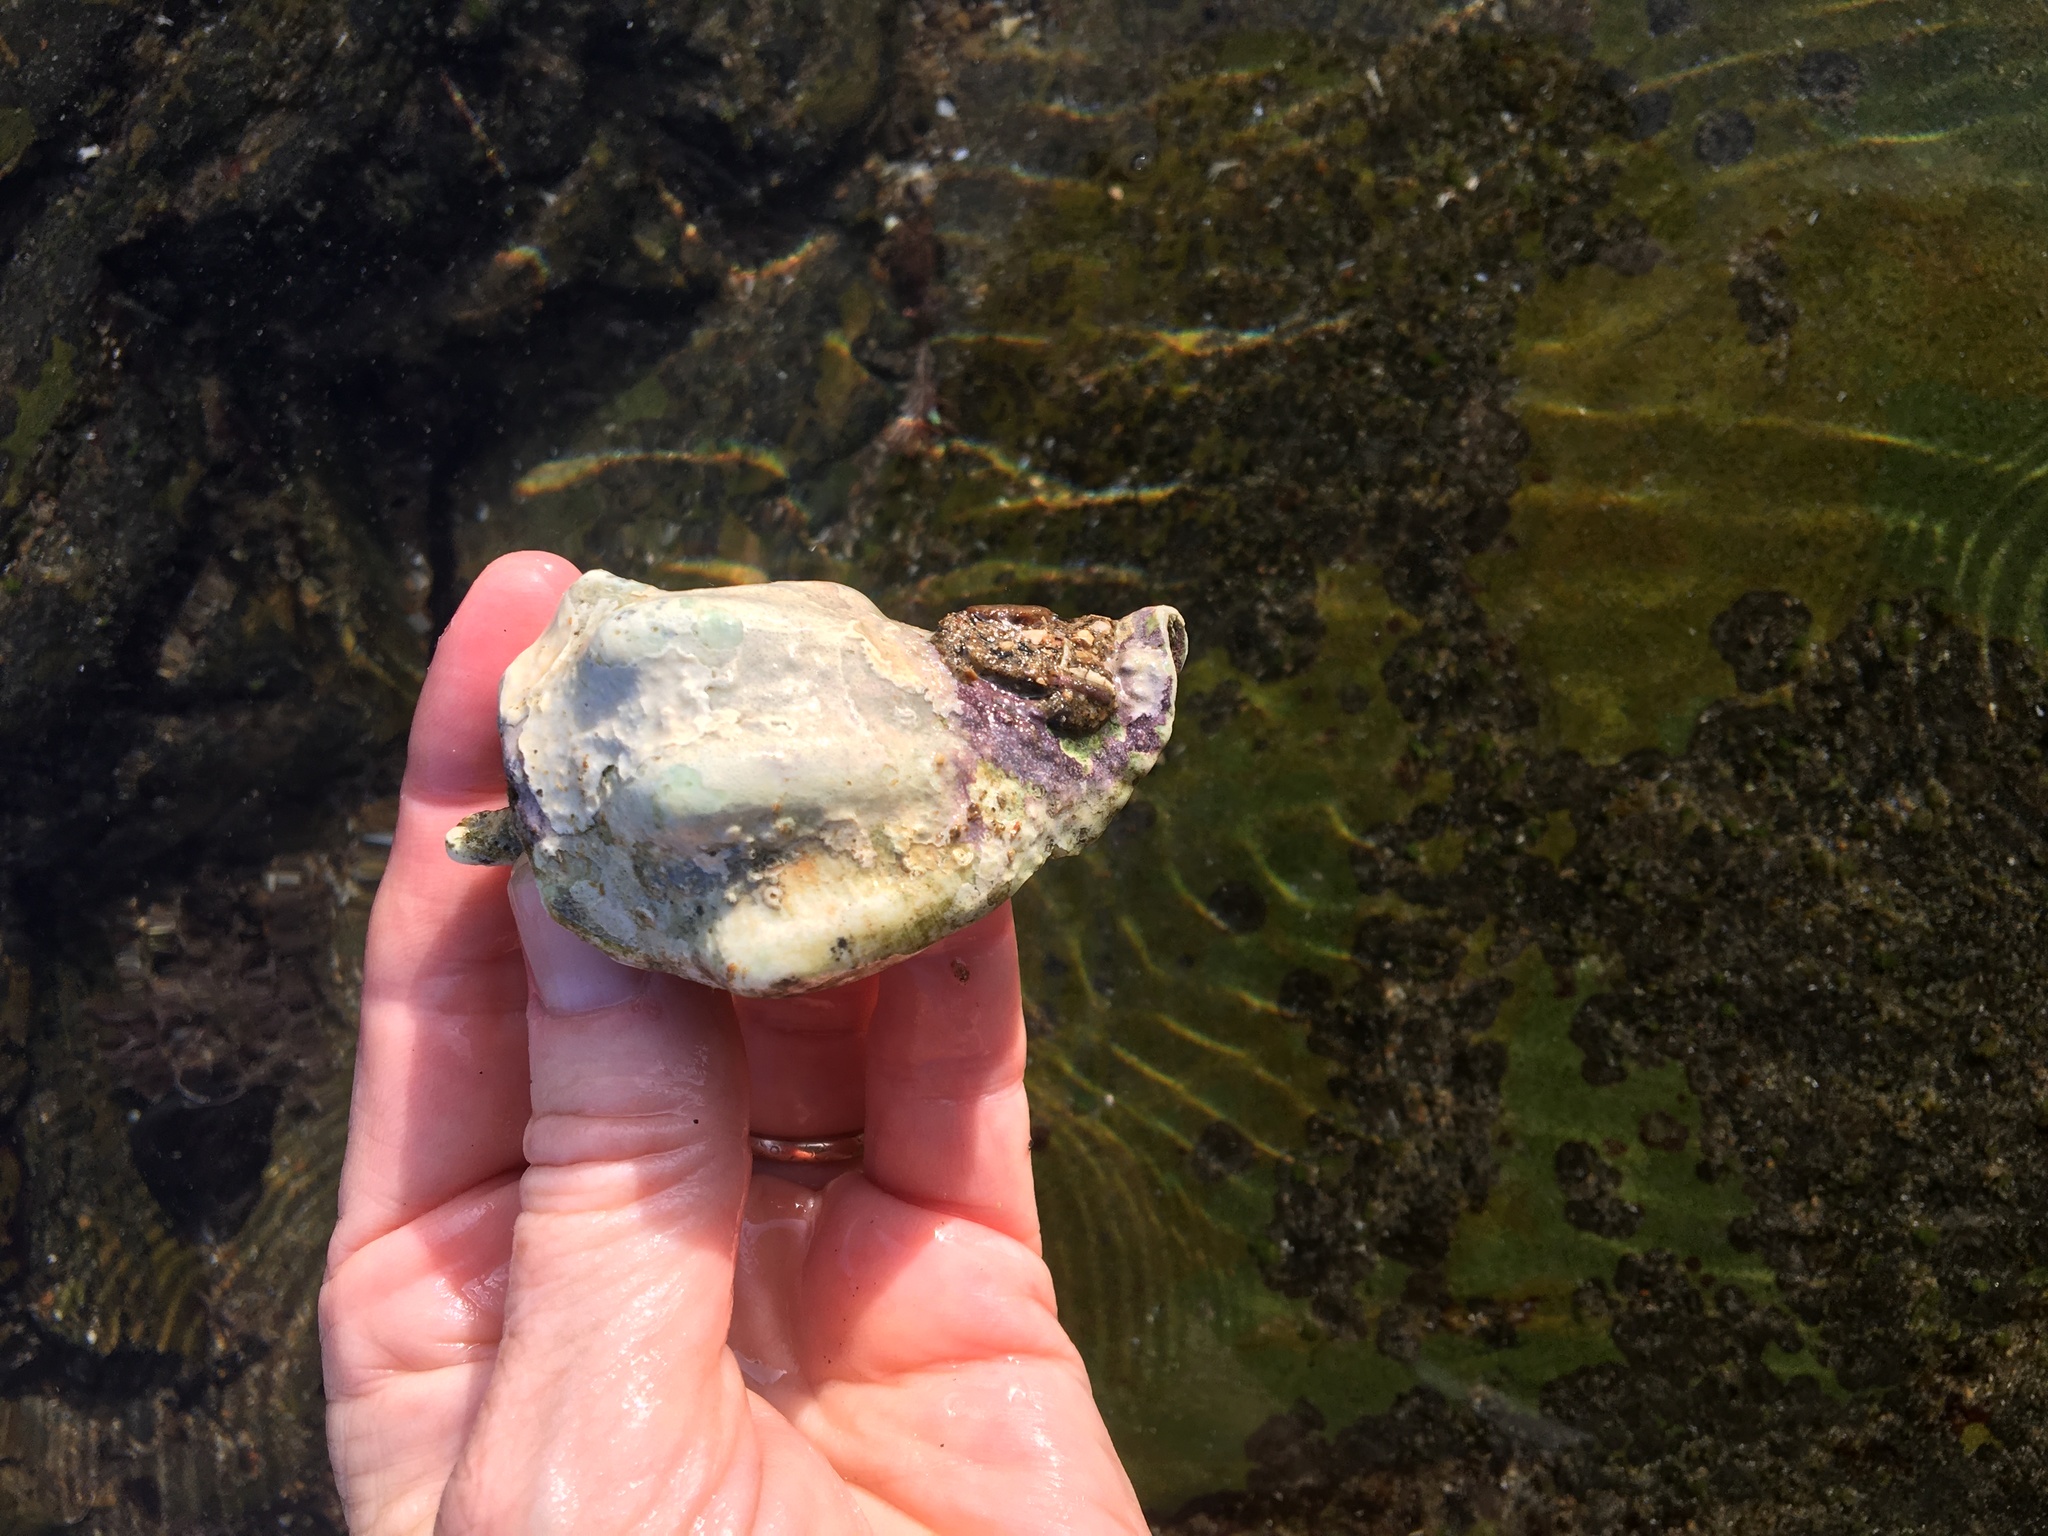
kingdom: Animalia
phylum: Mollusca
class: Gastropoda
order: Neogastropoda
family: Austrosiphonidae
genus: Kelletia
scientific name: Kelletia kelletii
